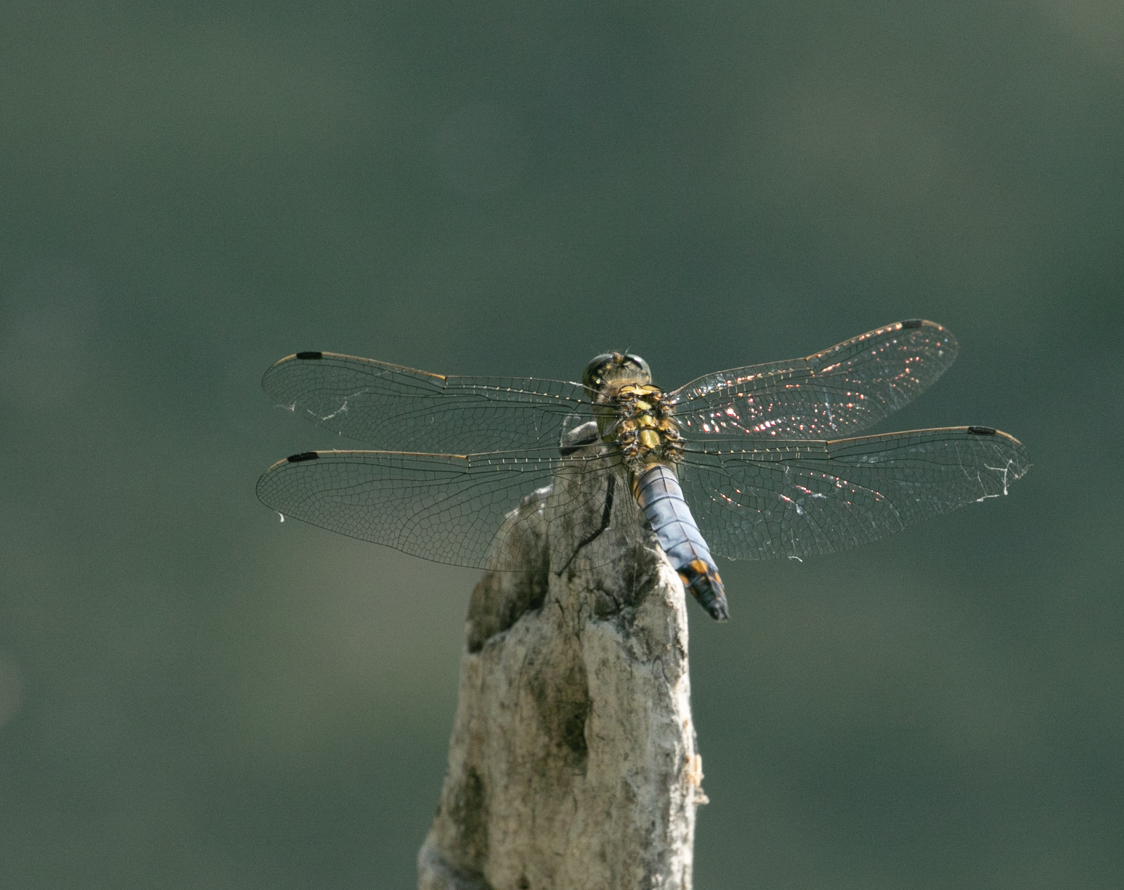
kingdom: Animalia
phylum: Arthropoda
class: Insecta
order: Odonata
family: Libellulidae
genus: Orthetrum
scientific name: Orthetrum cancellatum
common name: Black-tailed skimmer
